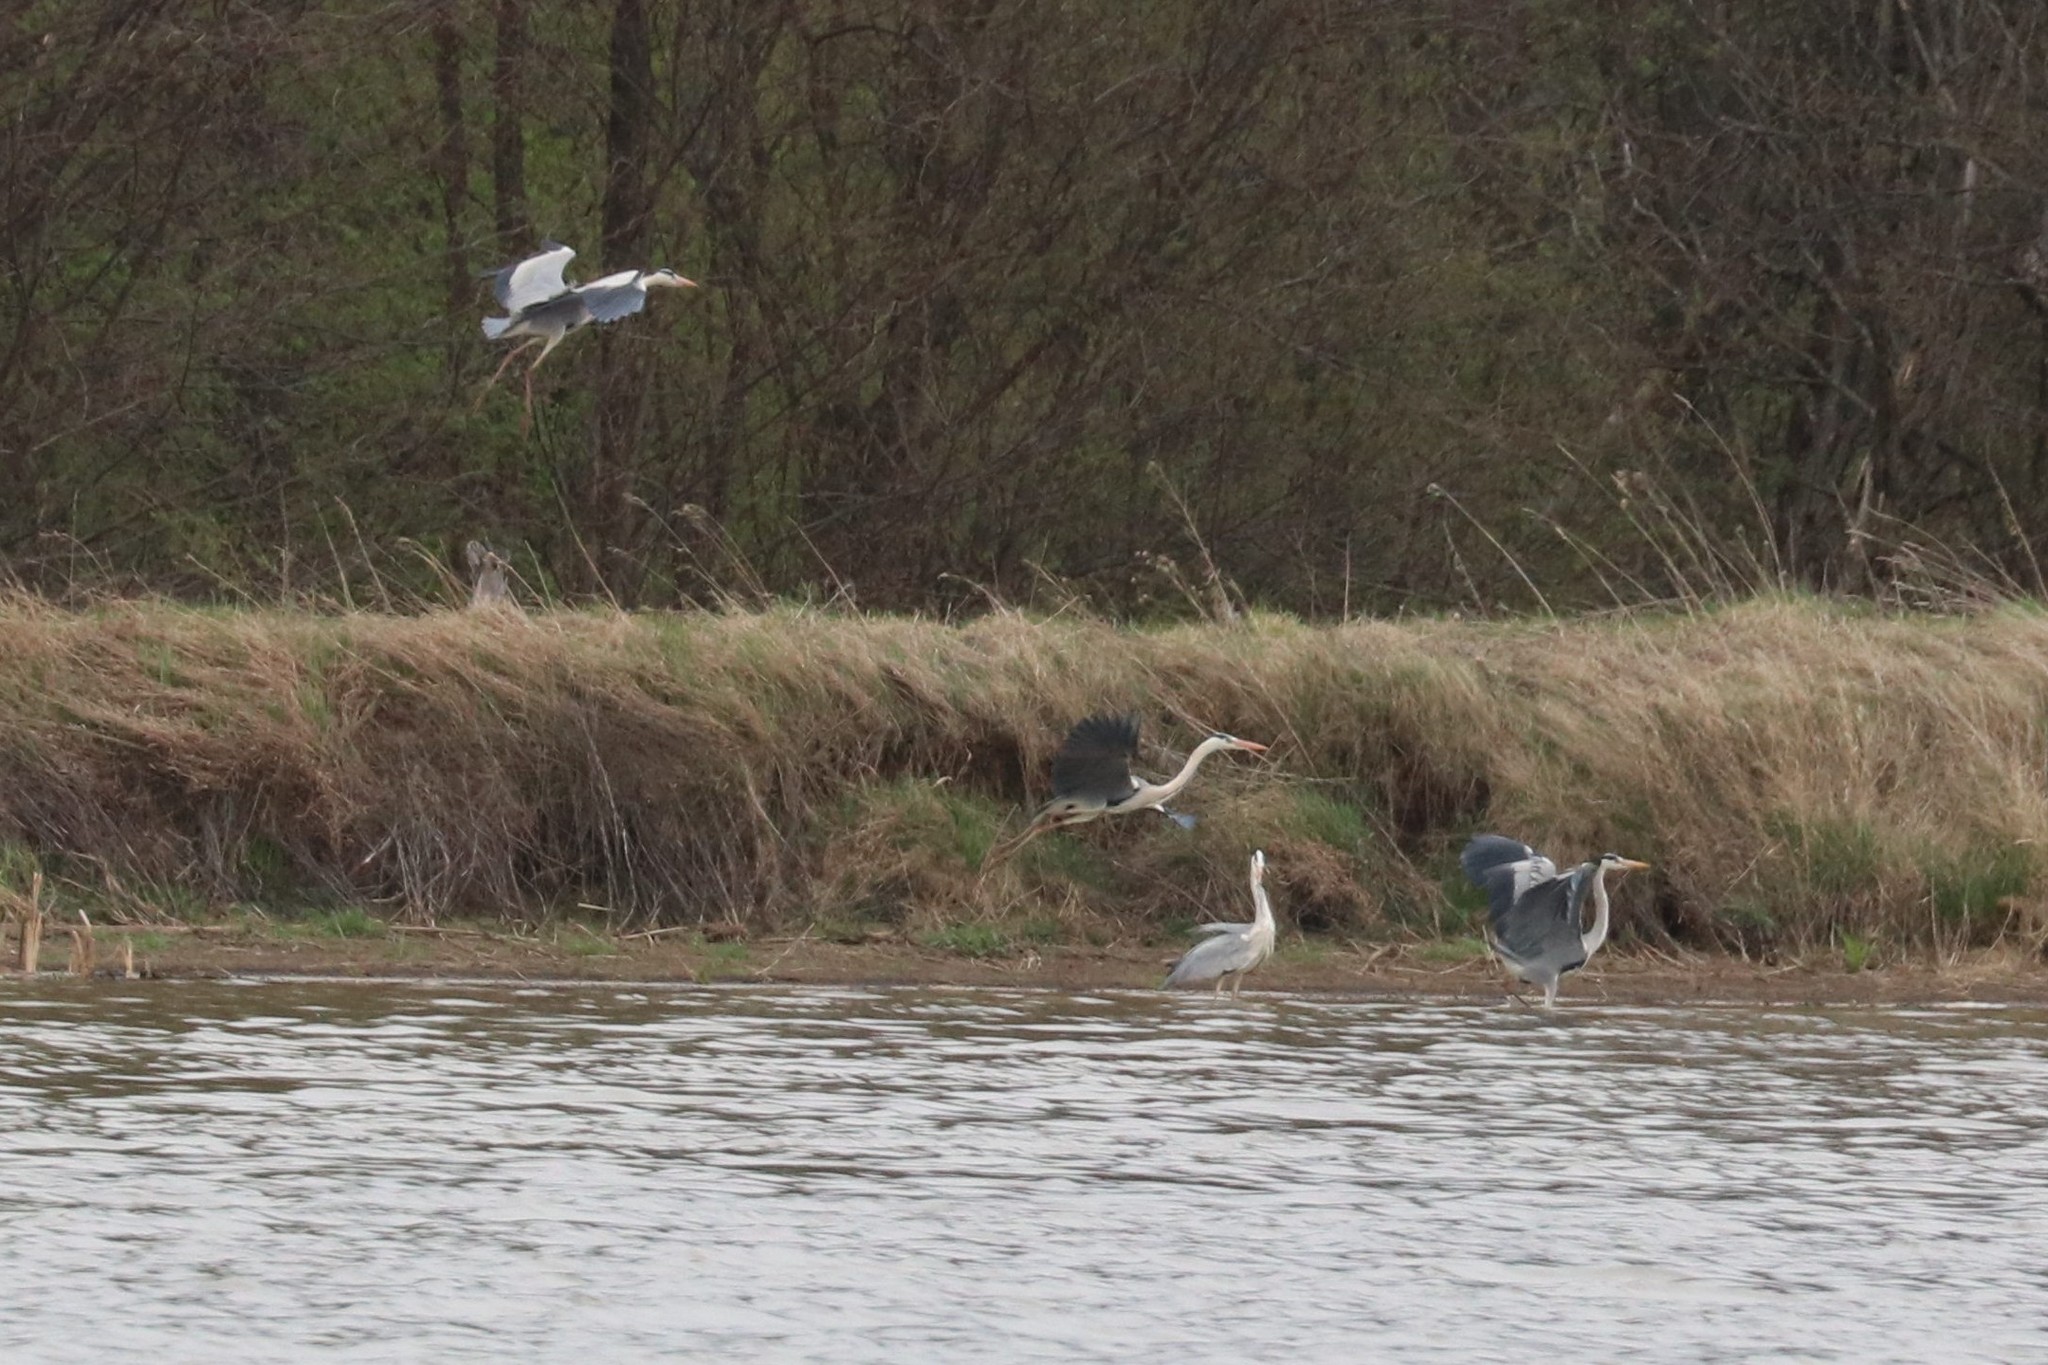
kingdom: Animalia
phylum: Chordata
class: Aves
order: Pelecaniformes
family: Ardeidae
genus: Ardea
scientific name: Ardea cinerea
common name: Grey heron
